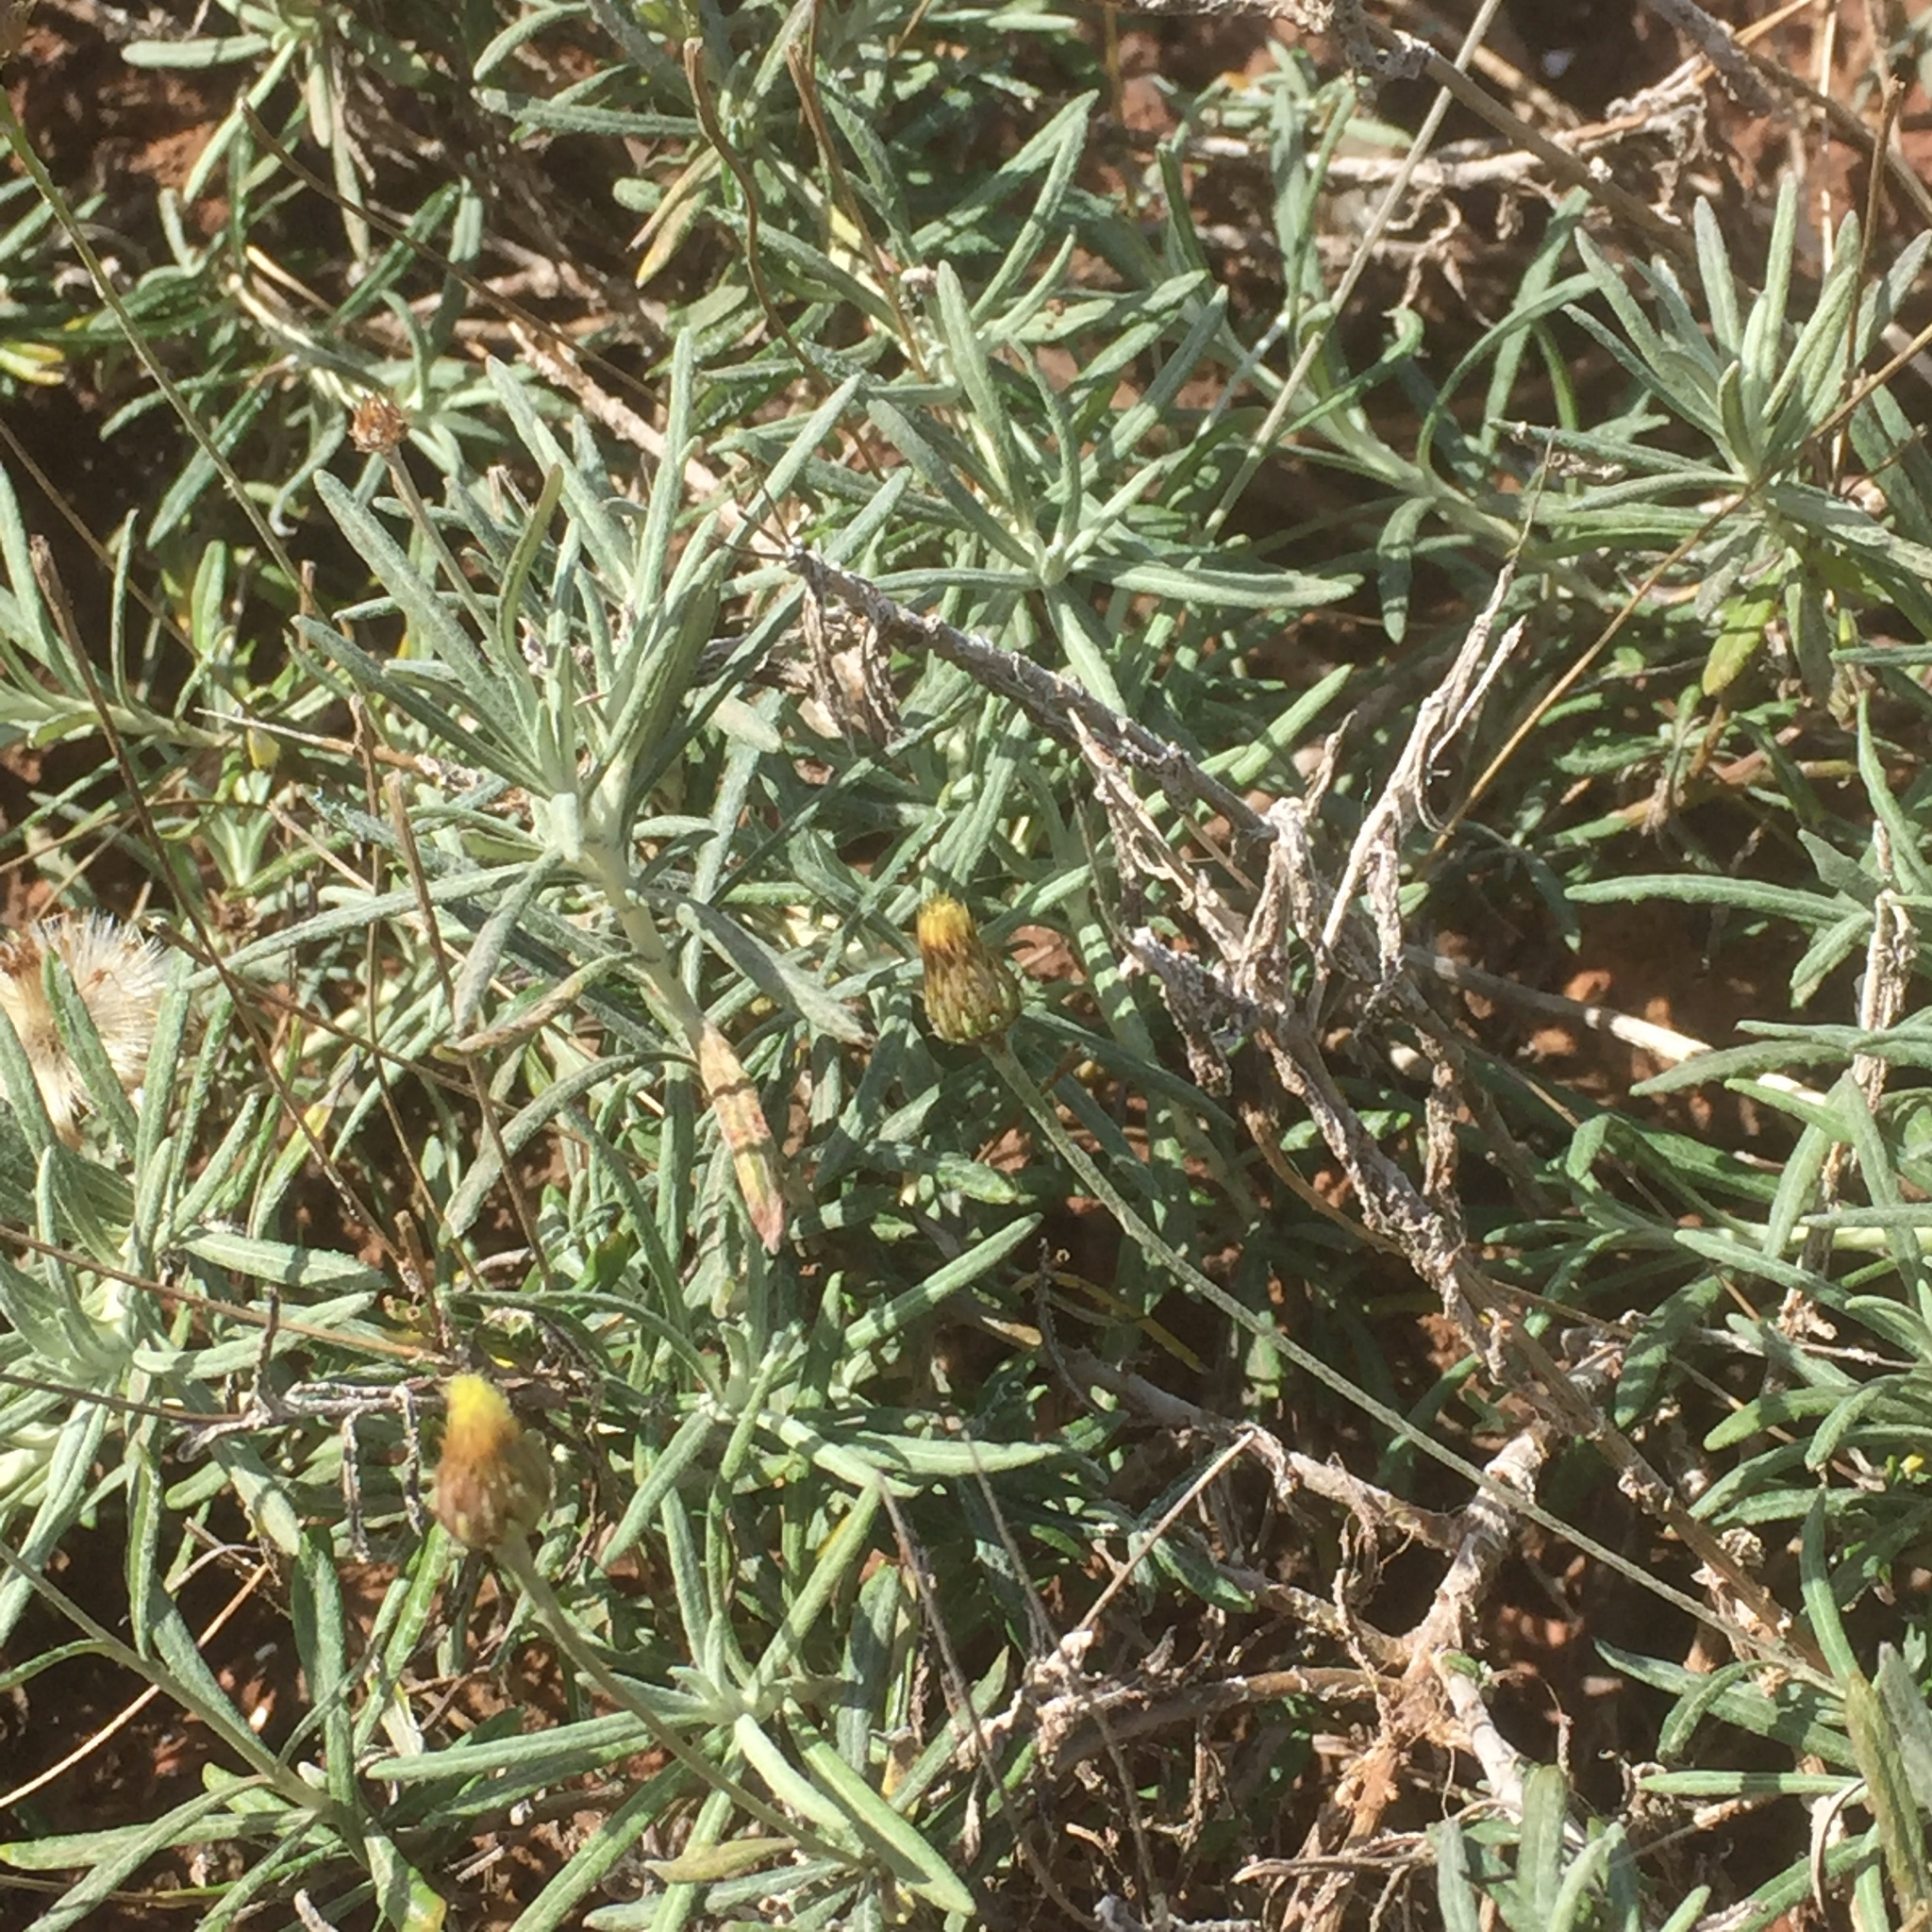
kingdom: Plantae
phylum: Tracheophyta
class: Magnoliopsida
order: Asterales
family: Asteraceae
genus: Phagnalon
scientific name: Phagnalon saxatile
